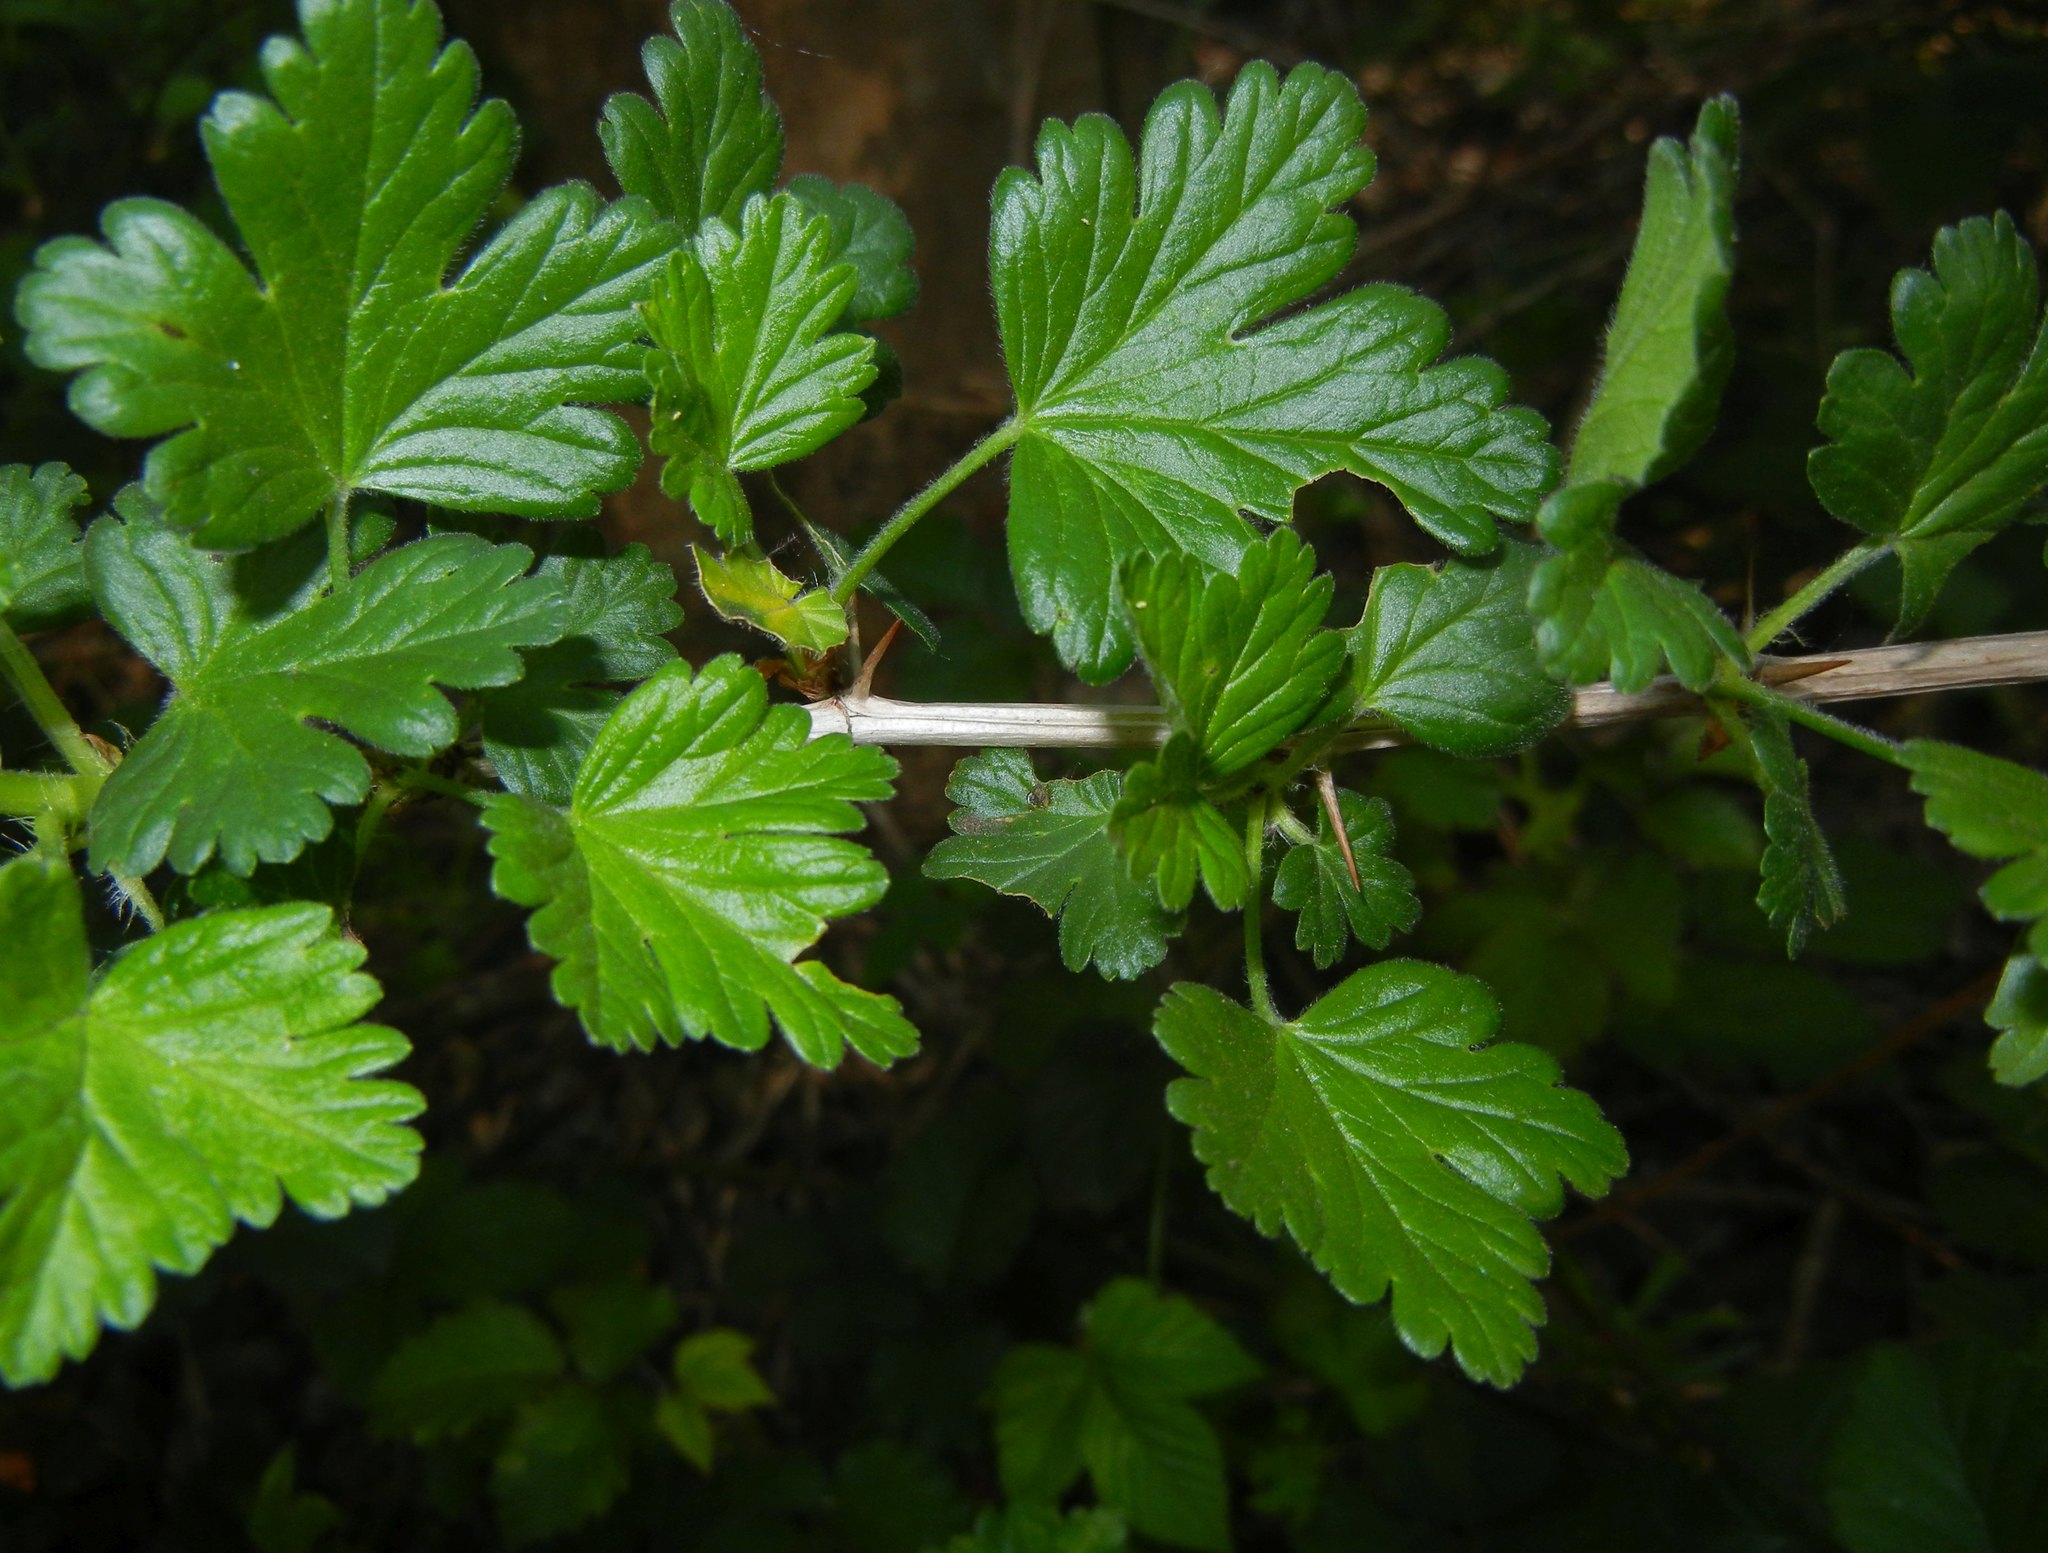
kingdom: Plantae
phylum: Tracheophyta
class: Magnoliopsida
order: Saxifragales
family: Grossulariaceae
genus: Ribes
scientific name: Ribes uva-crispa
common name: Gooseberry
